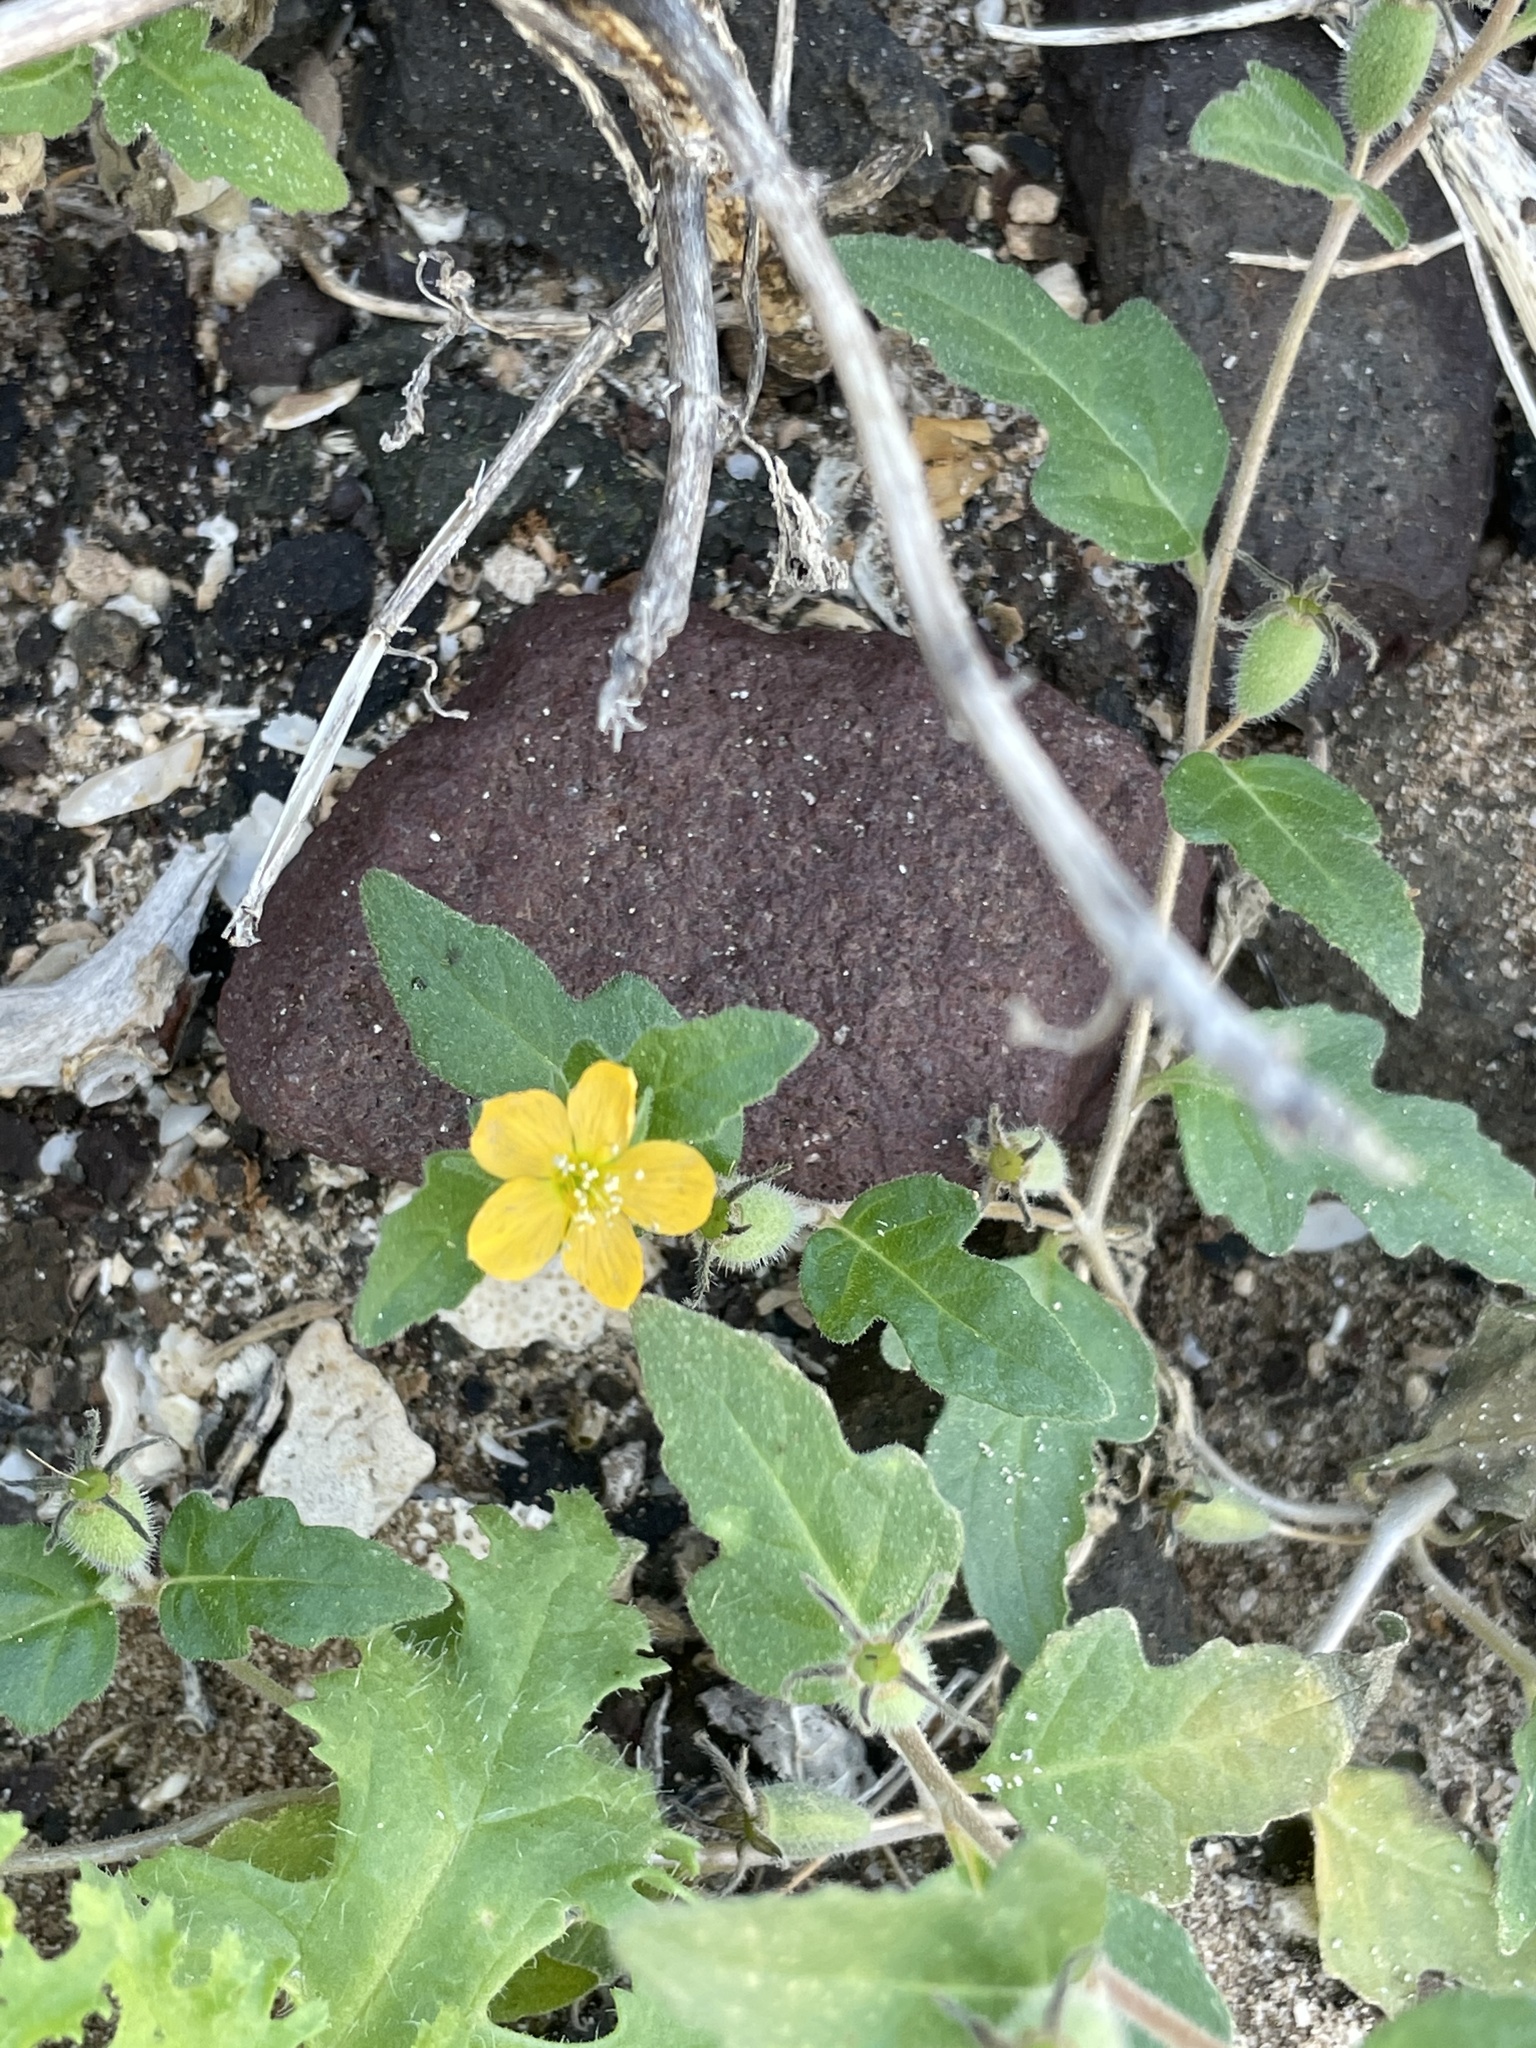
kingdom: Plantae
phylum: Tracheophyta
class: Magnoliopsida
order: Cornales
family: Loasaceae
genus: Mentzelia
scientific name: Mentzelia adhaerens
